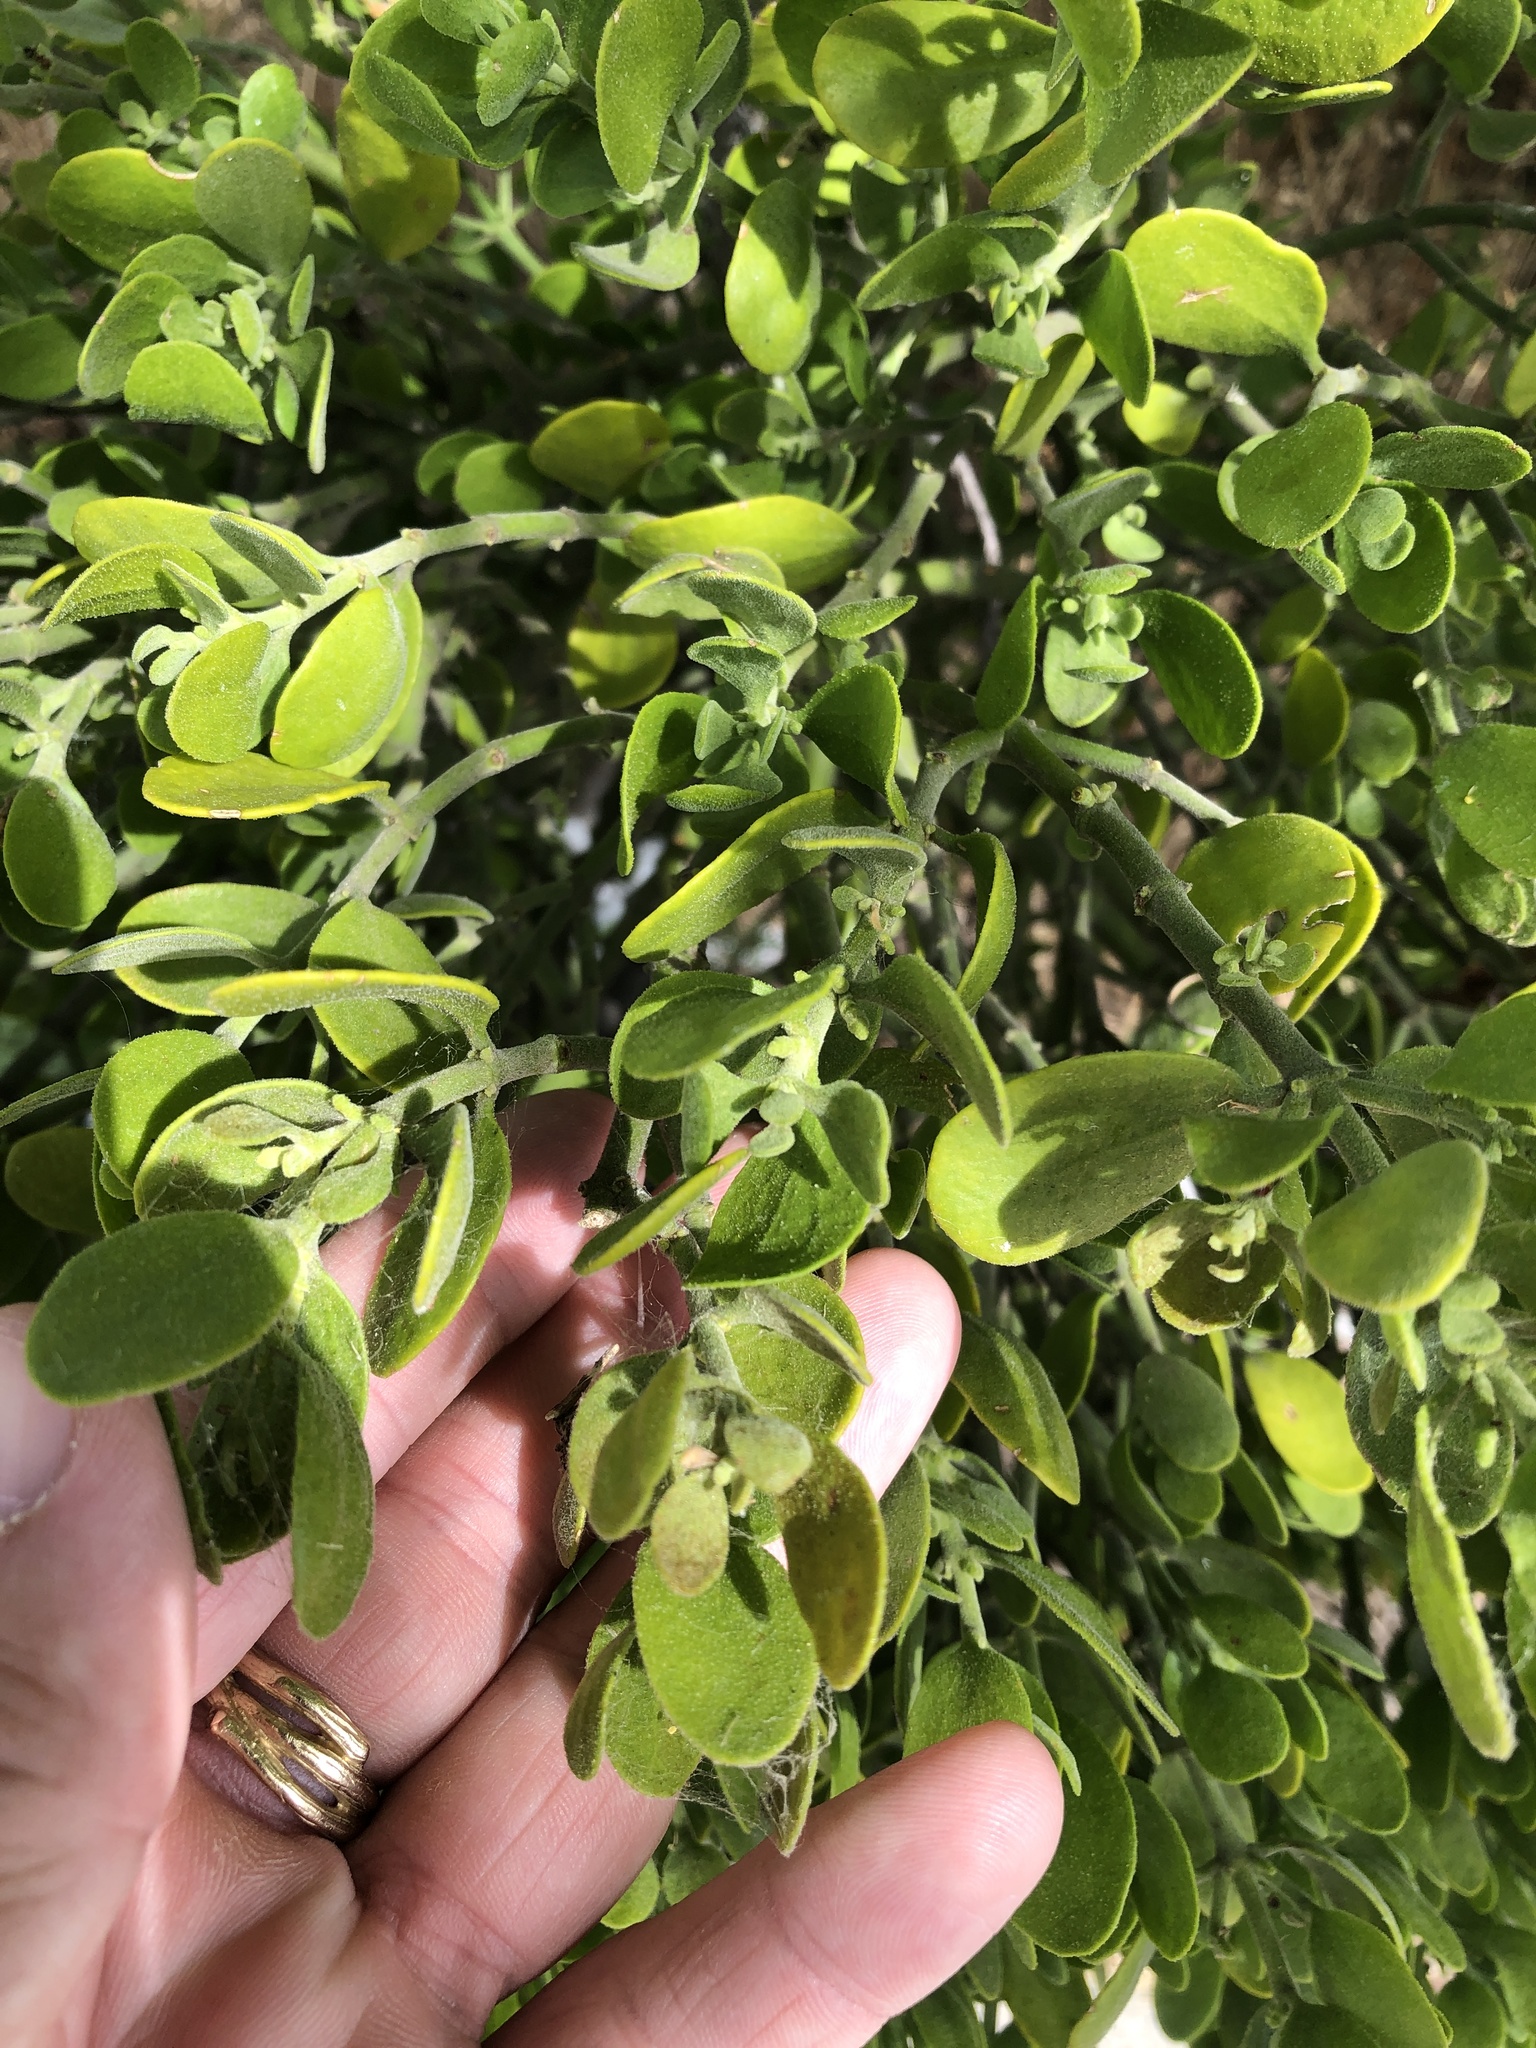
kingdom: Plantae
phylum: Tracheophyta
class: Magnoliopsida
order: Santalales
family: Viscaceae
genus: Phoradendron
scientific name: Phoradendron leucarpum
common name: Pacific mistletoe
